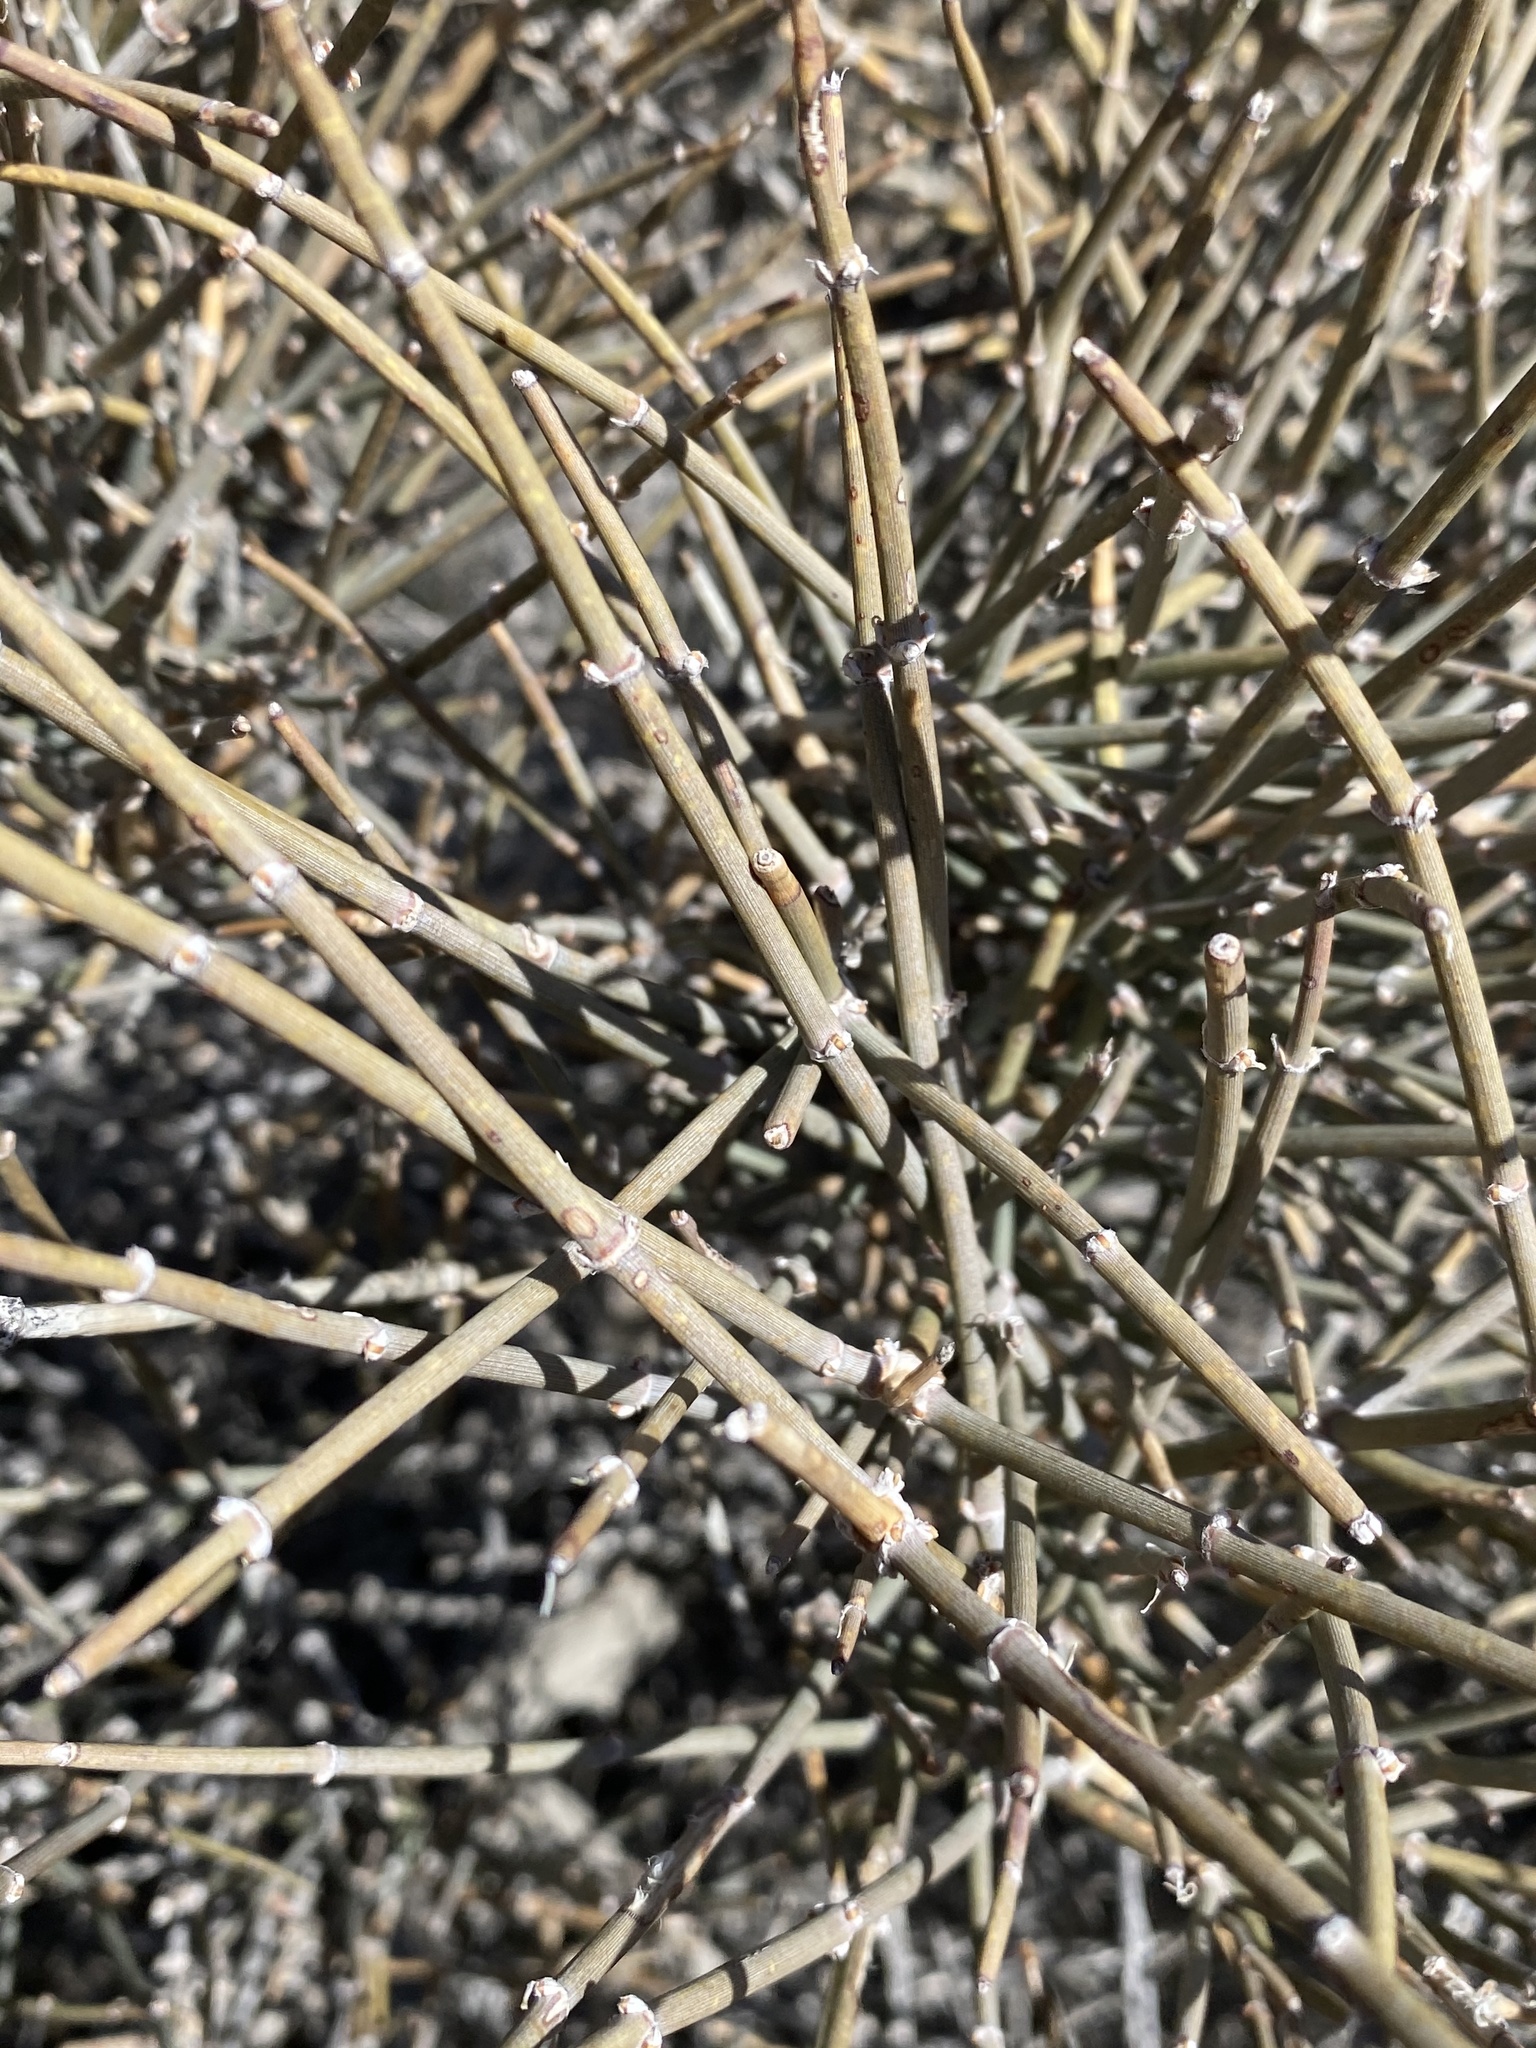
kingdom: Plantae
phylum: Tracheophyta
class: Gnetopsida
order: Ephedrales
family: Ephedraceae
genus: Ephedra
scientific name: Ephedra nevadensis
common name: Gray ephedra
